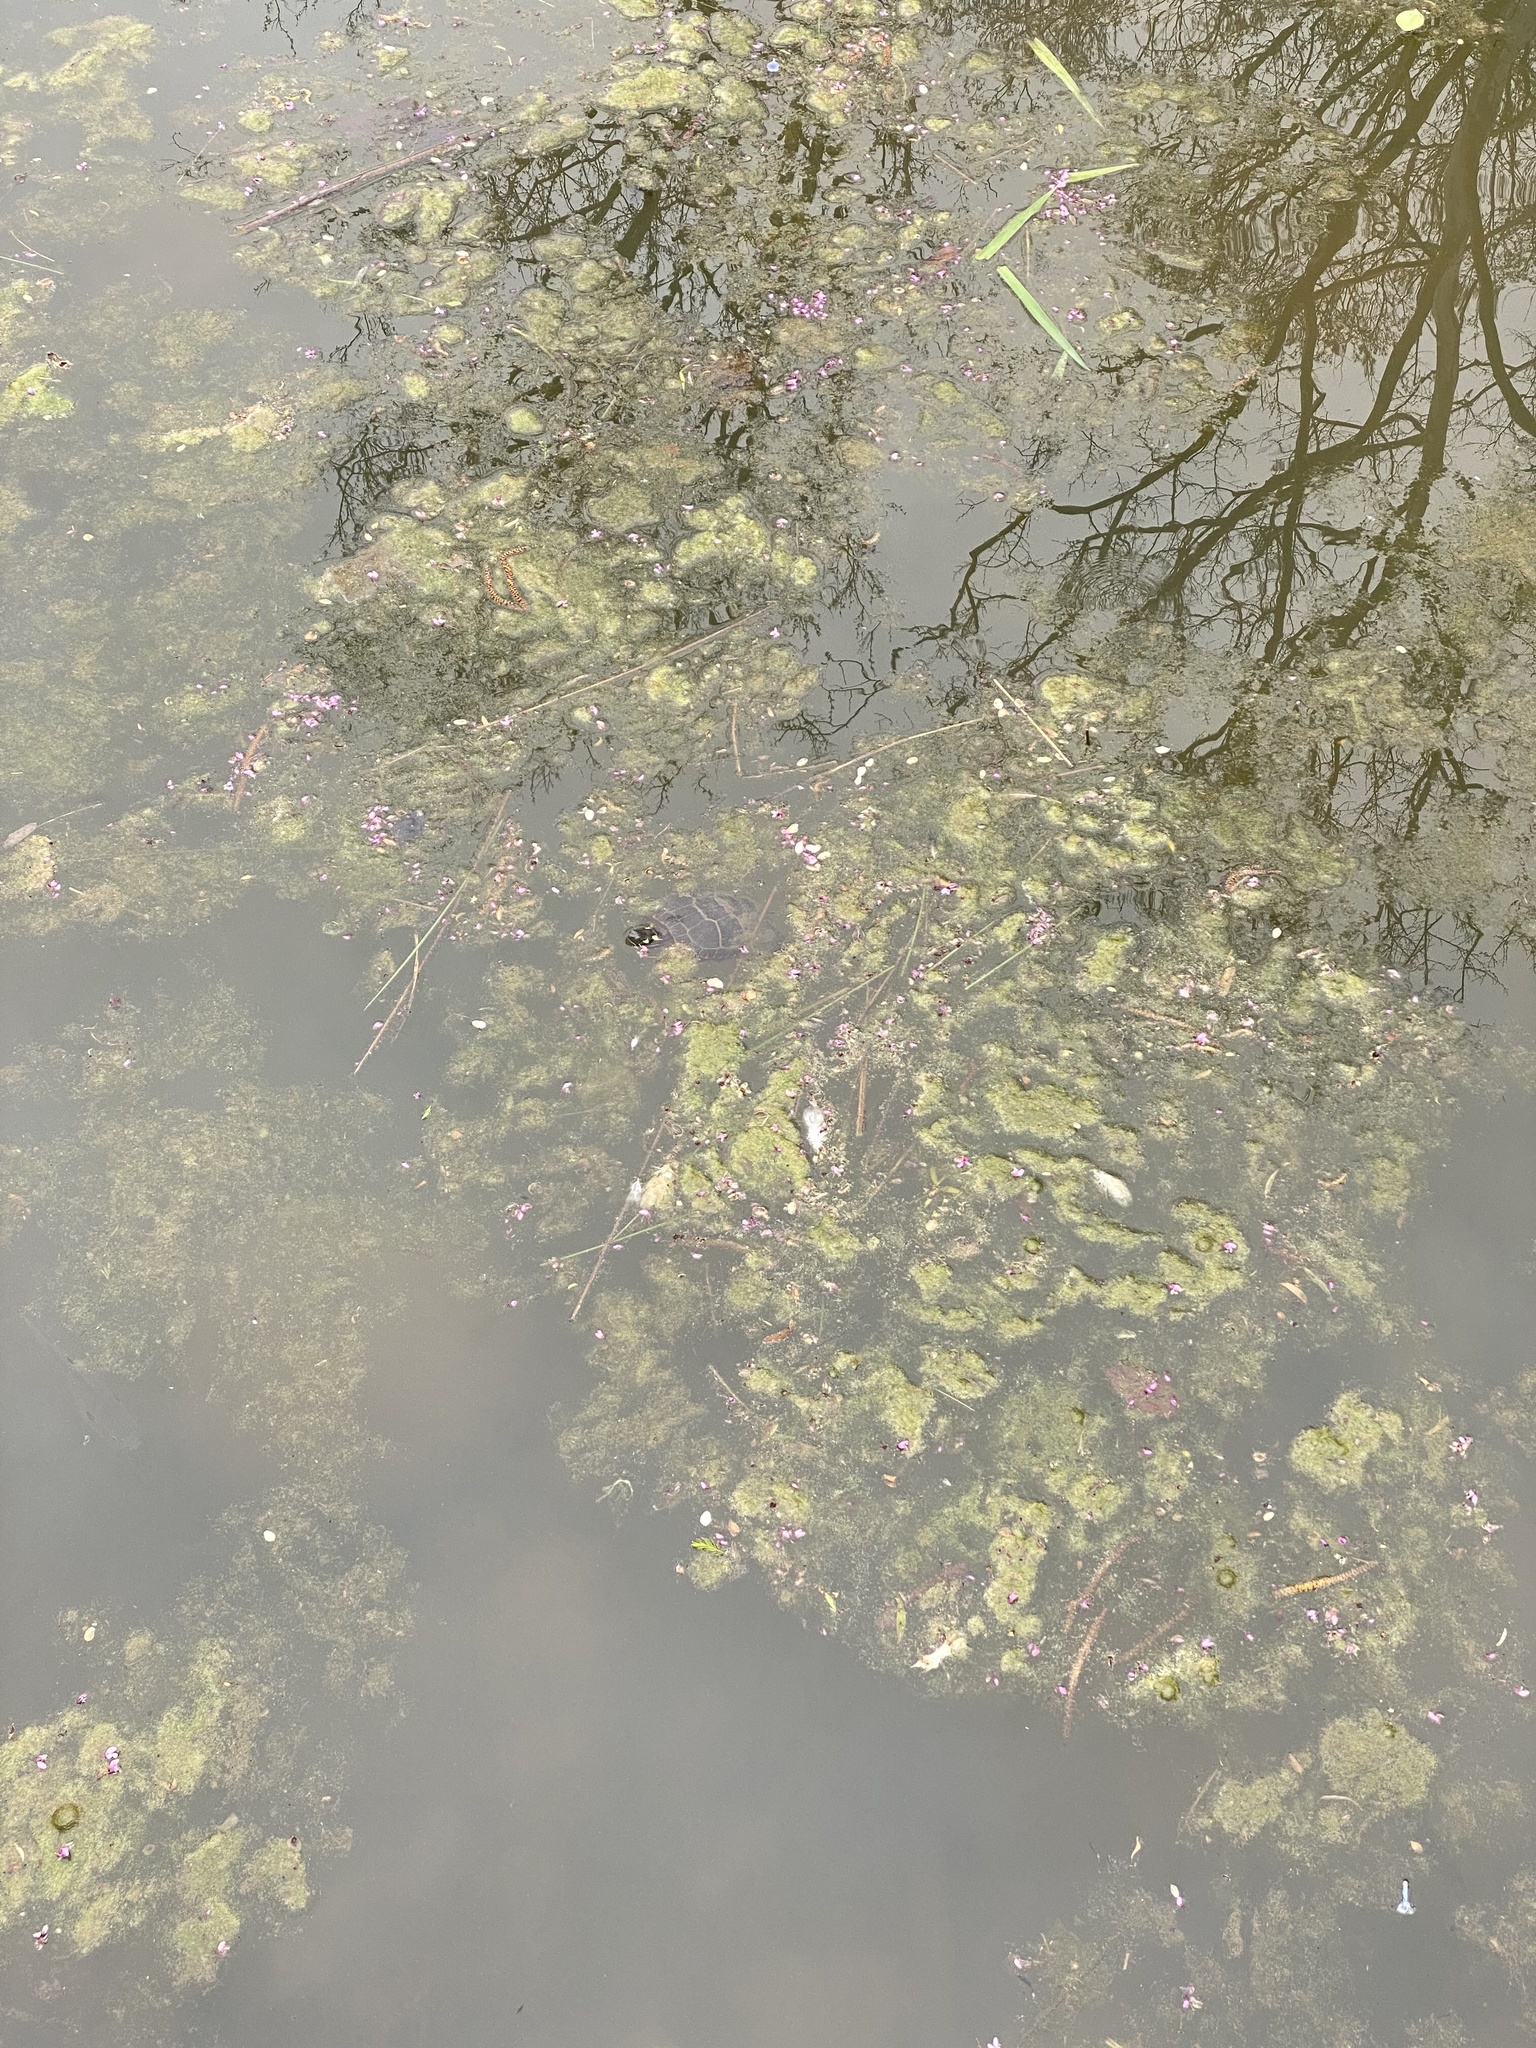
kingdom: Animalia
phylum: Chordata
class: Testudines
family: Emydidae
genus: Chrysemys
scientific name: Chrysemys picta
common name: Painted turtle
